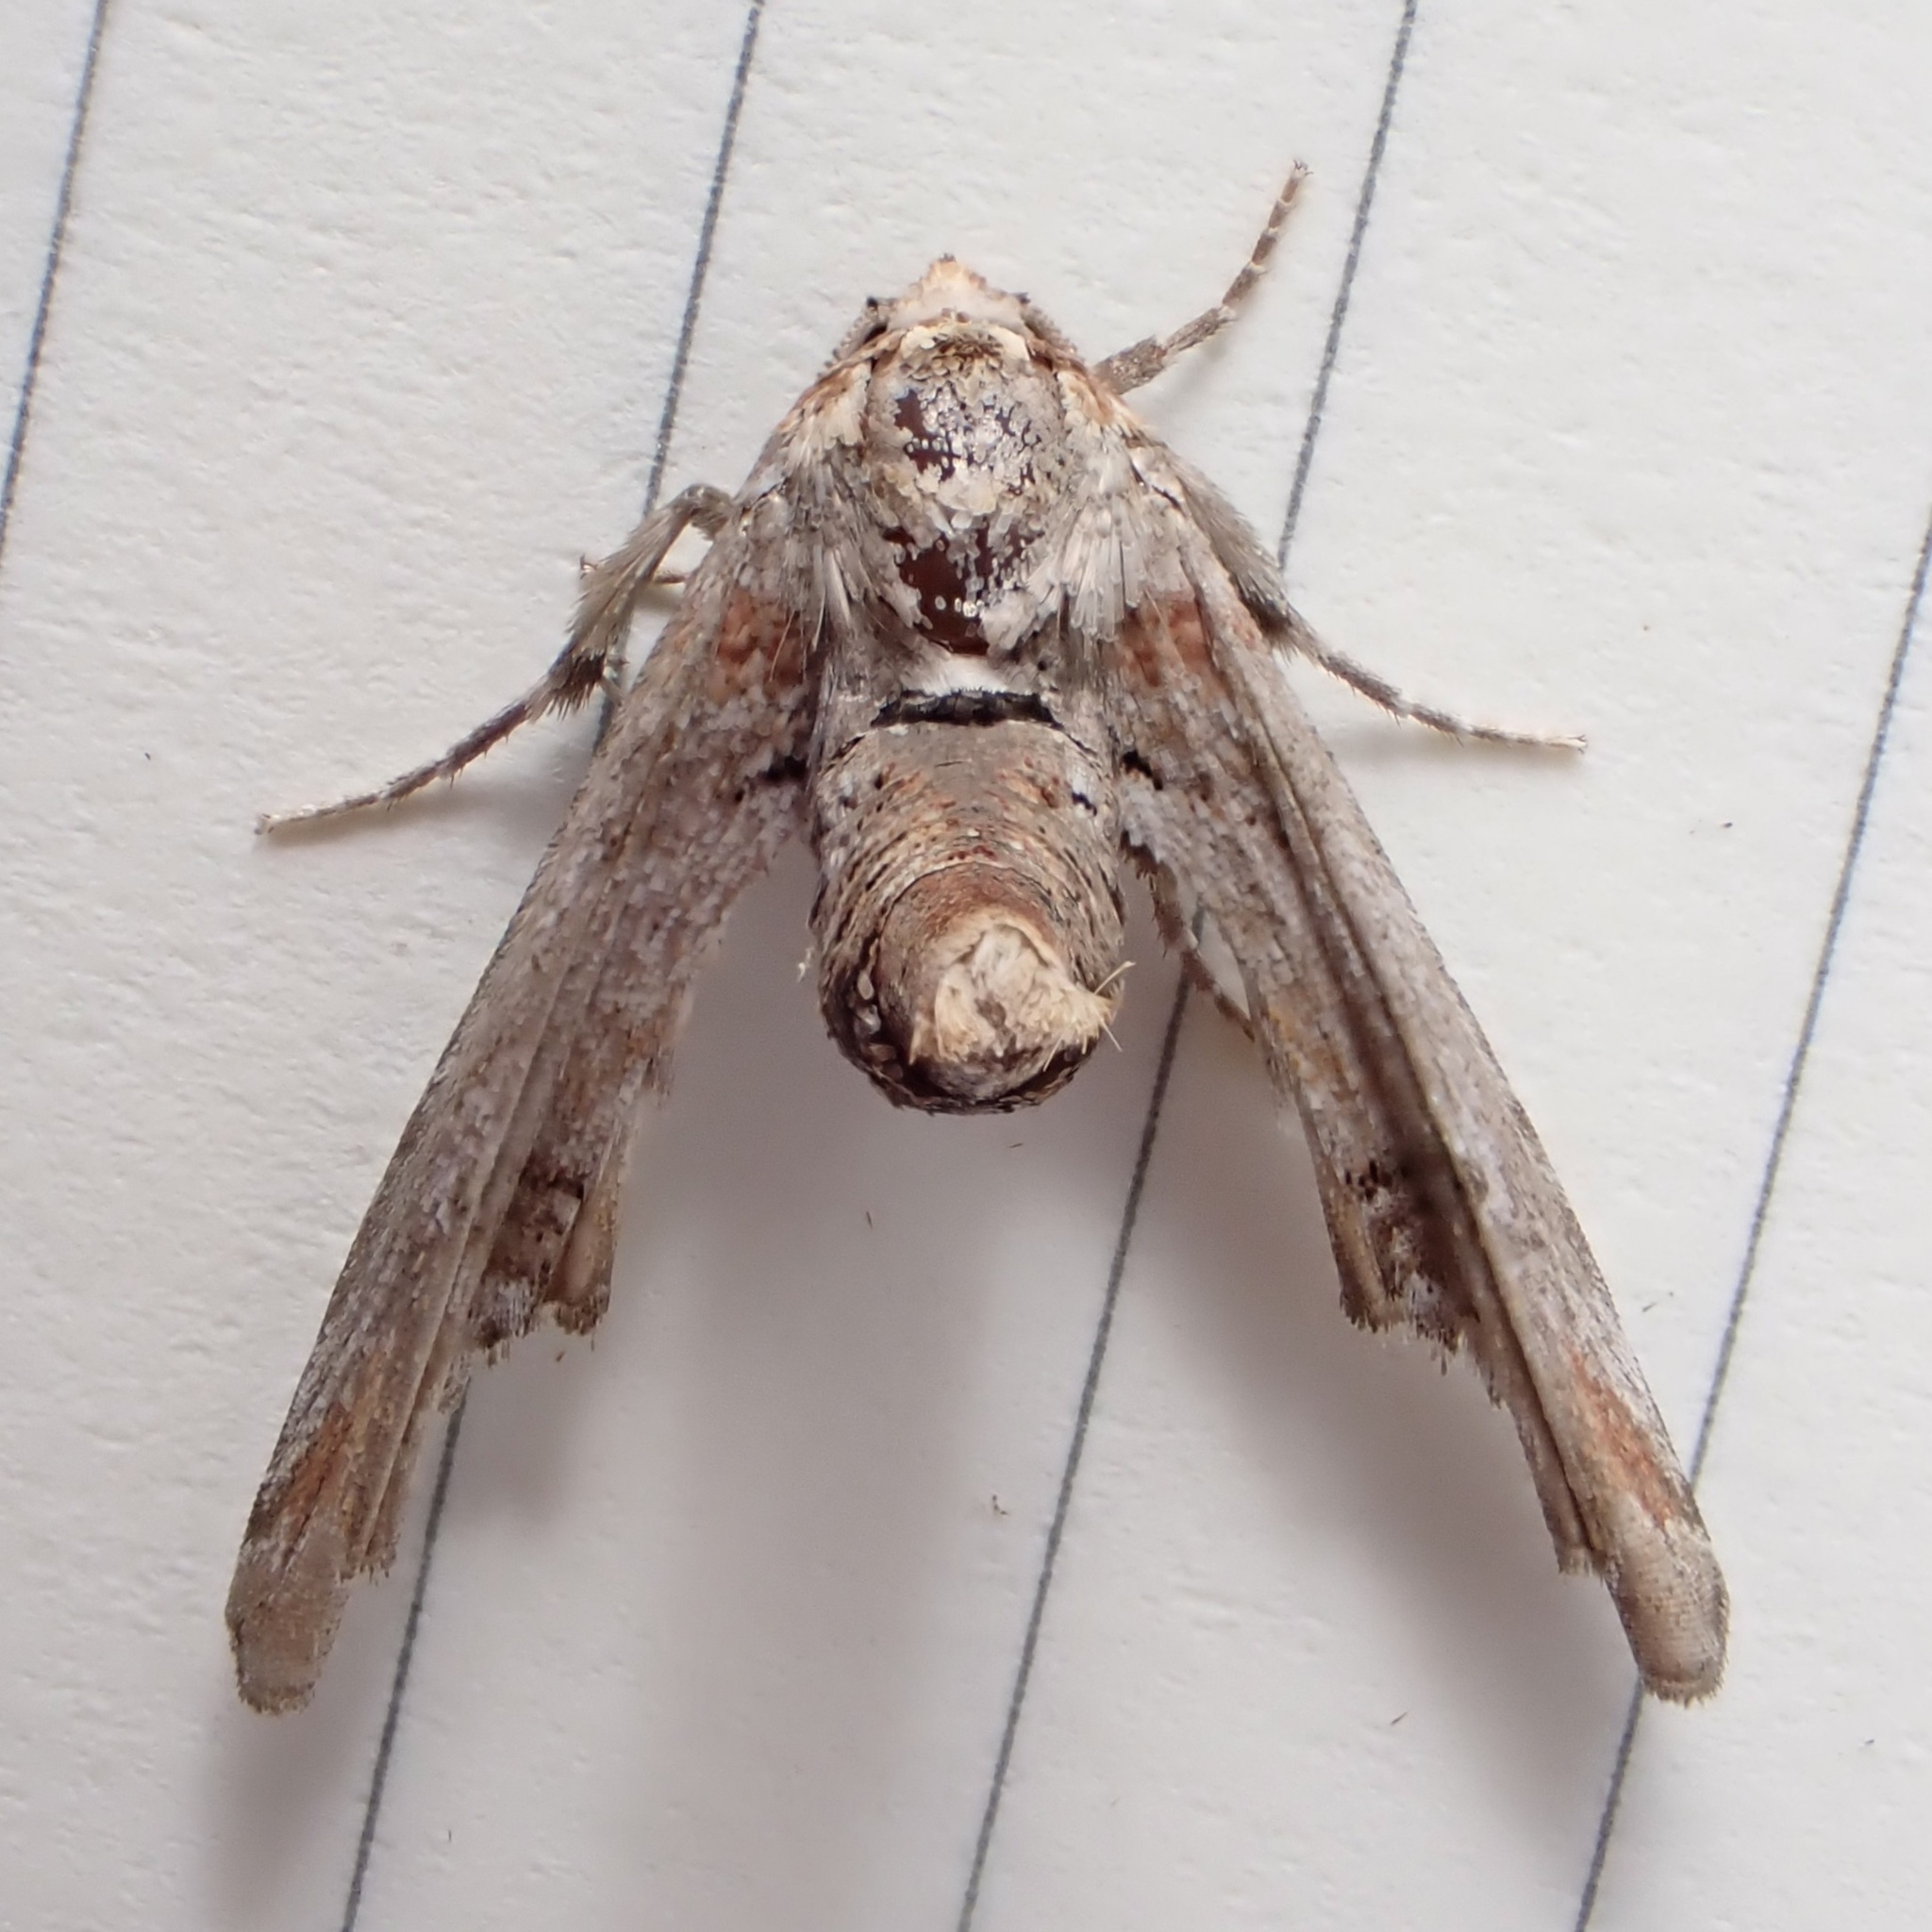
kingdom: Animalia
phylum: Arthropoda
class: Insecta
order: Lepidoptera
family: Euteliidae
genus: Marathyssa
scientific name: Marathyssa inficita
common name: Dark marathyssa moth
